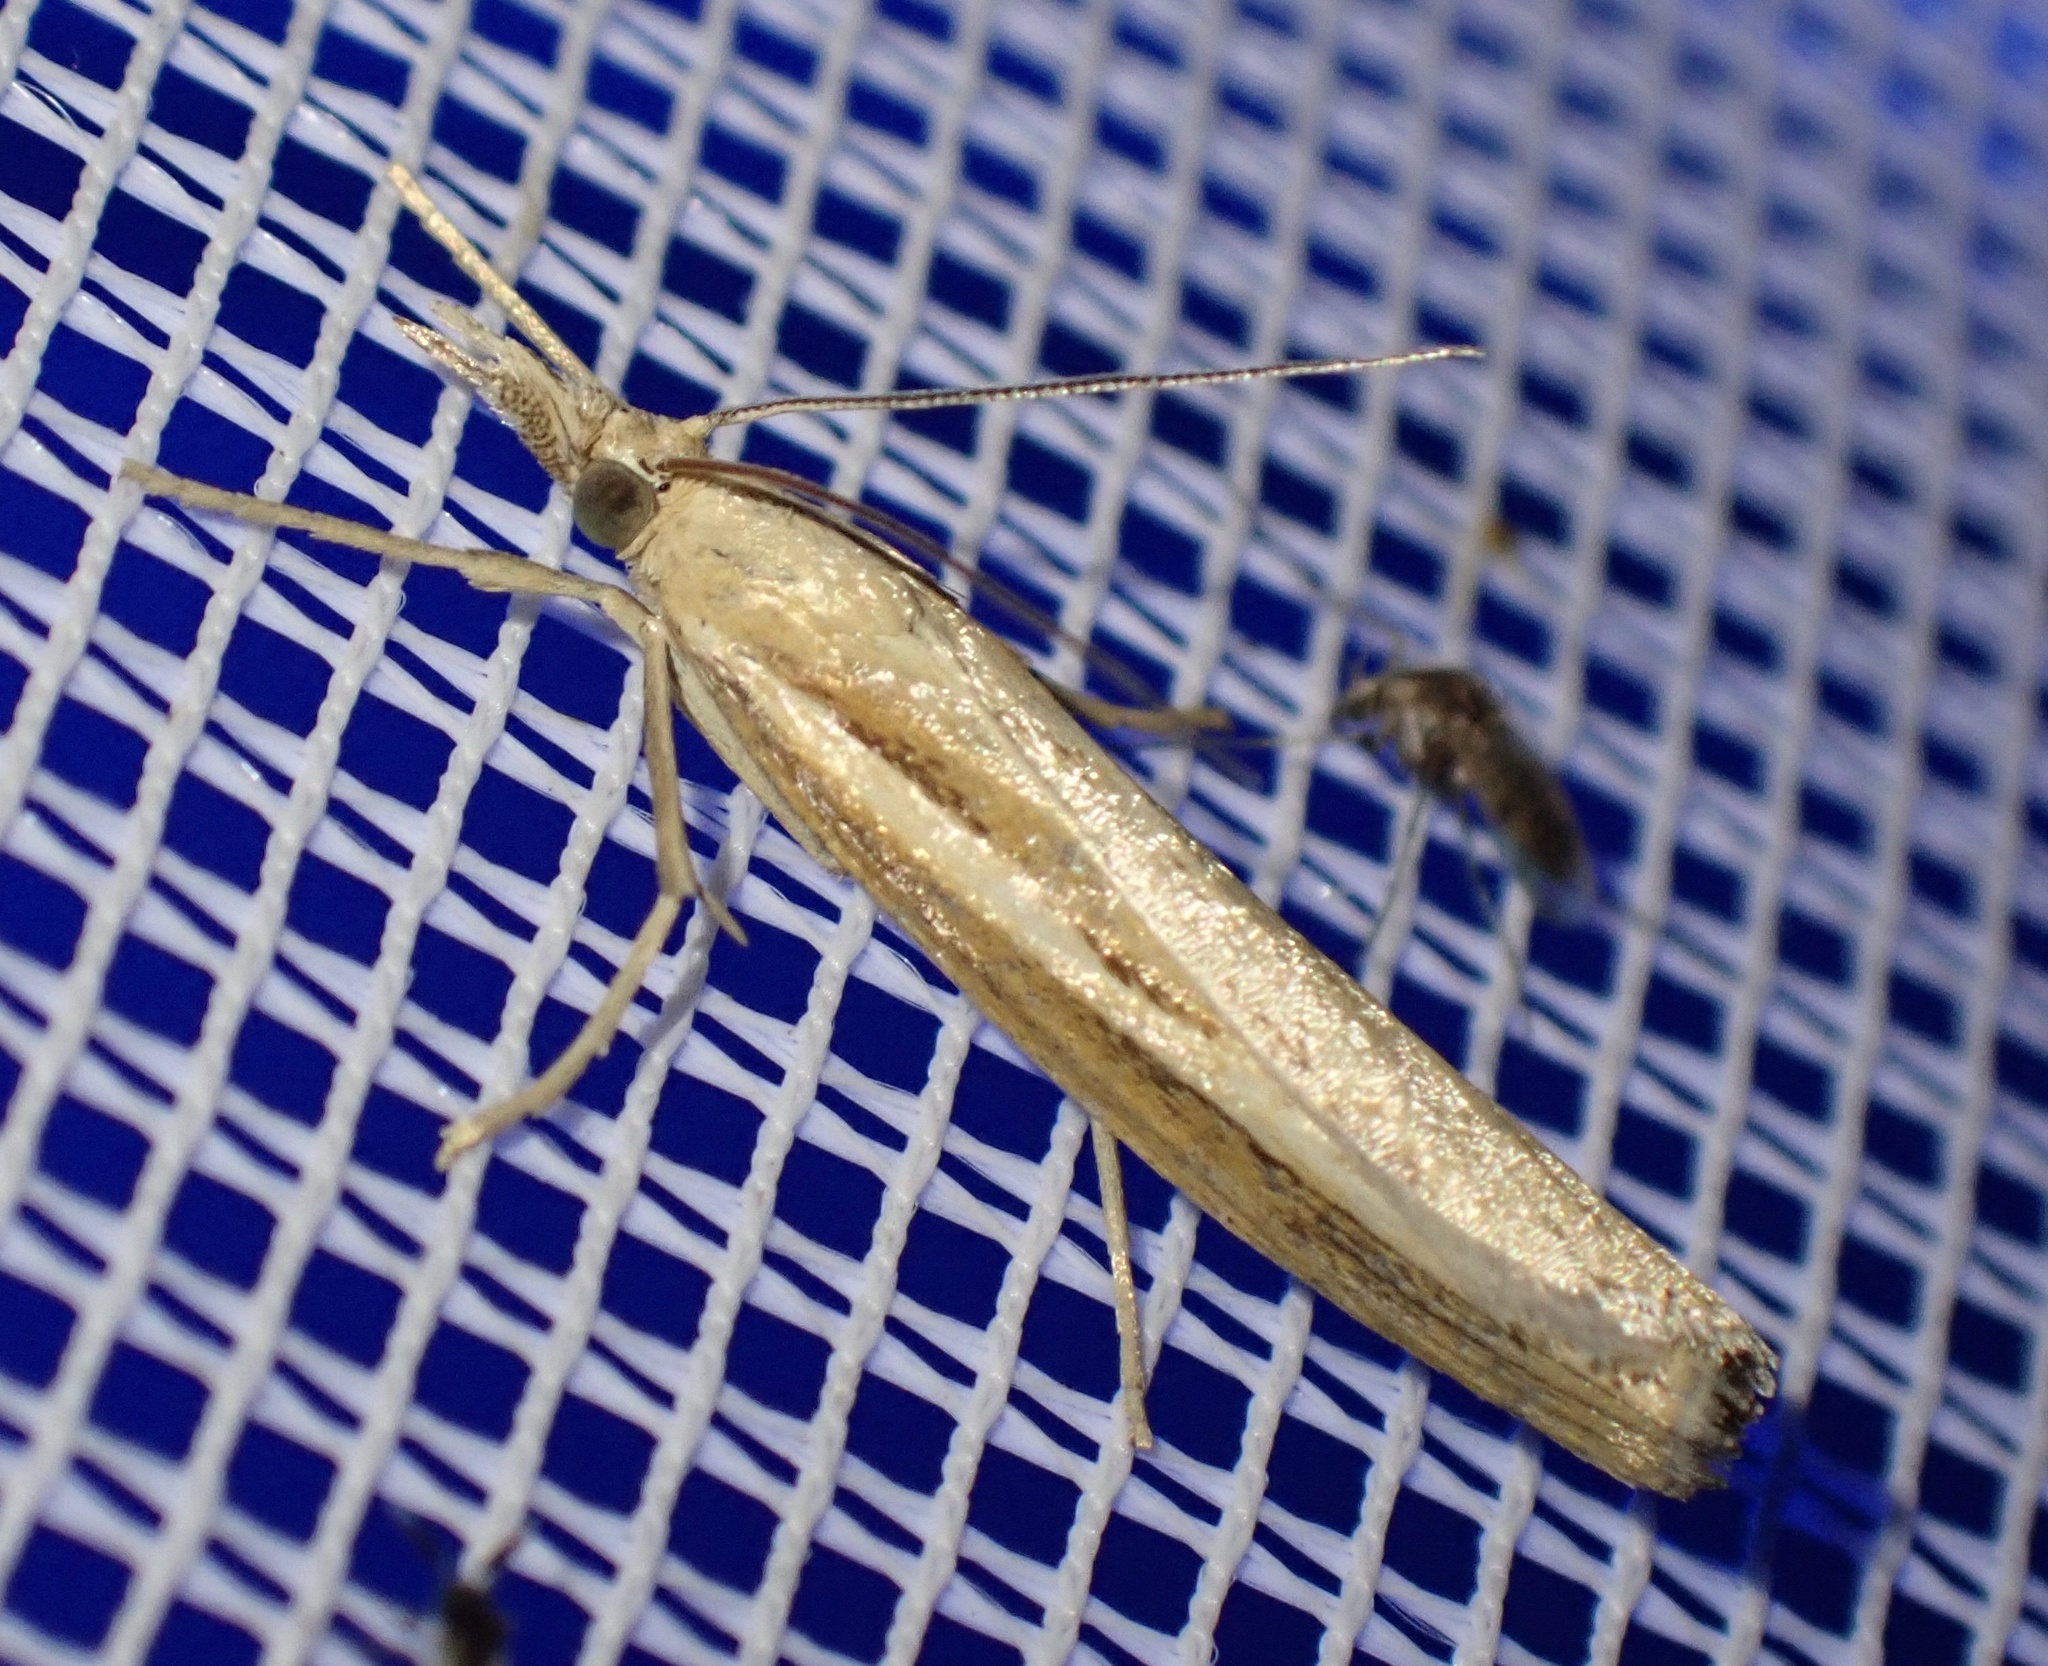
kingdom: Animalia
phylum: Arthropoda
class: Insecta
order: Lepidoptera
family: Crambidae
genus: Agriphila
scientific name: Agriphila tristellus
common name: Common grass-veneer
